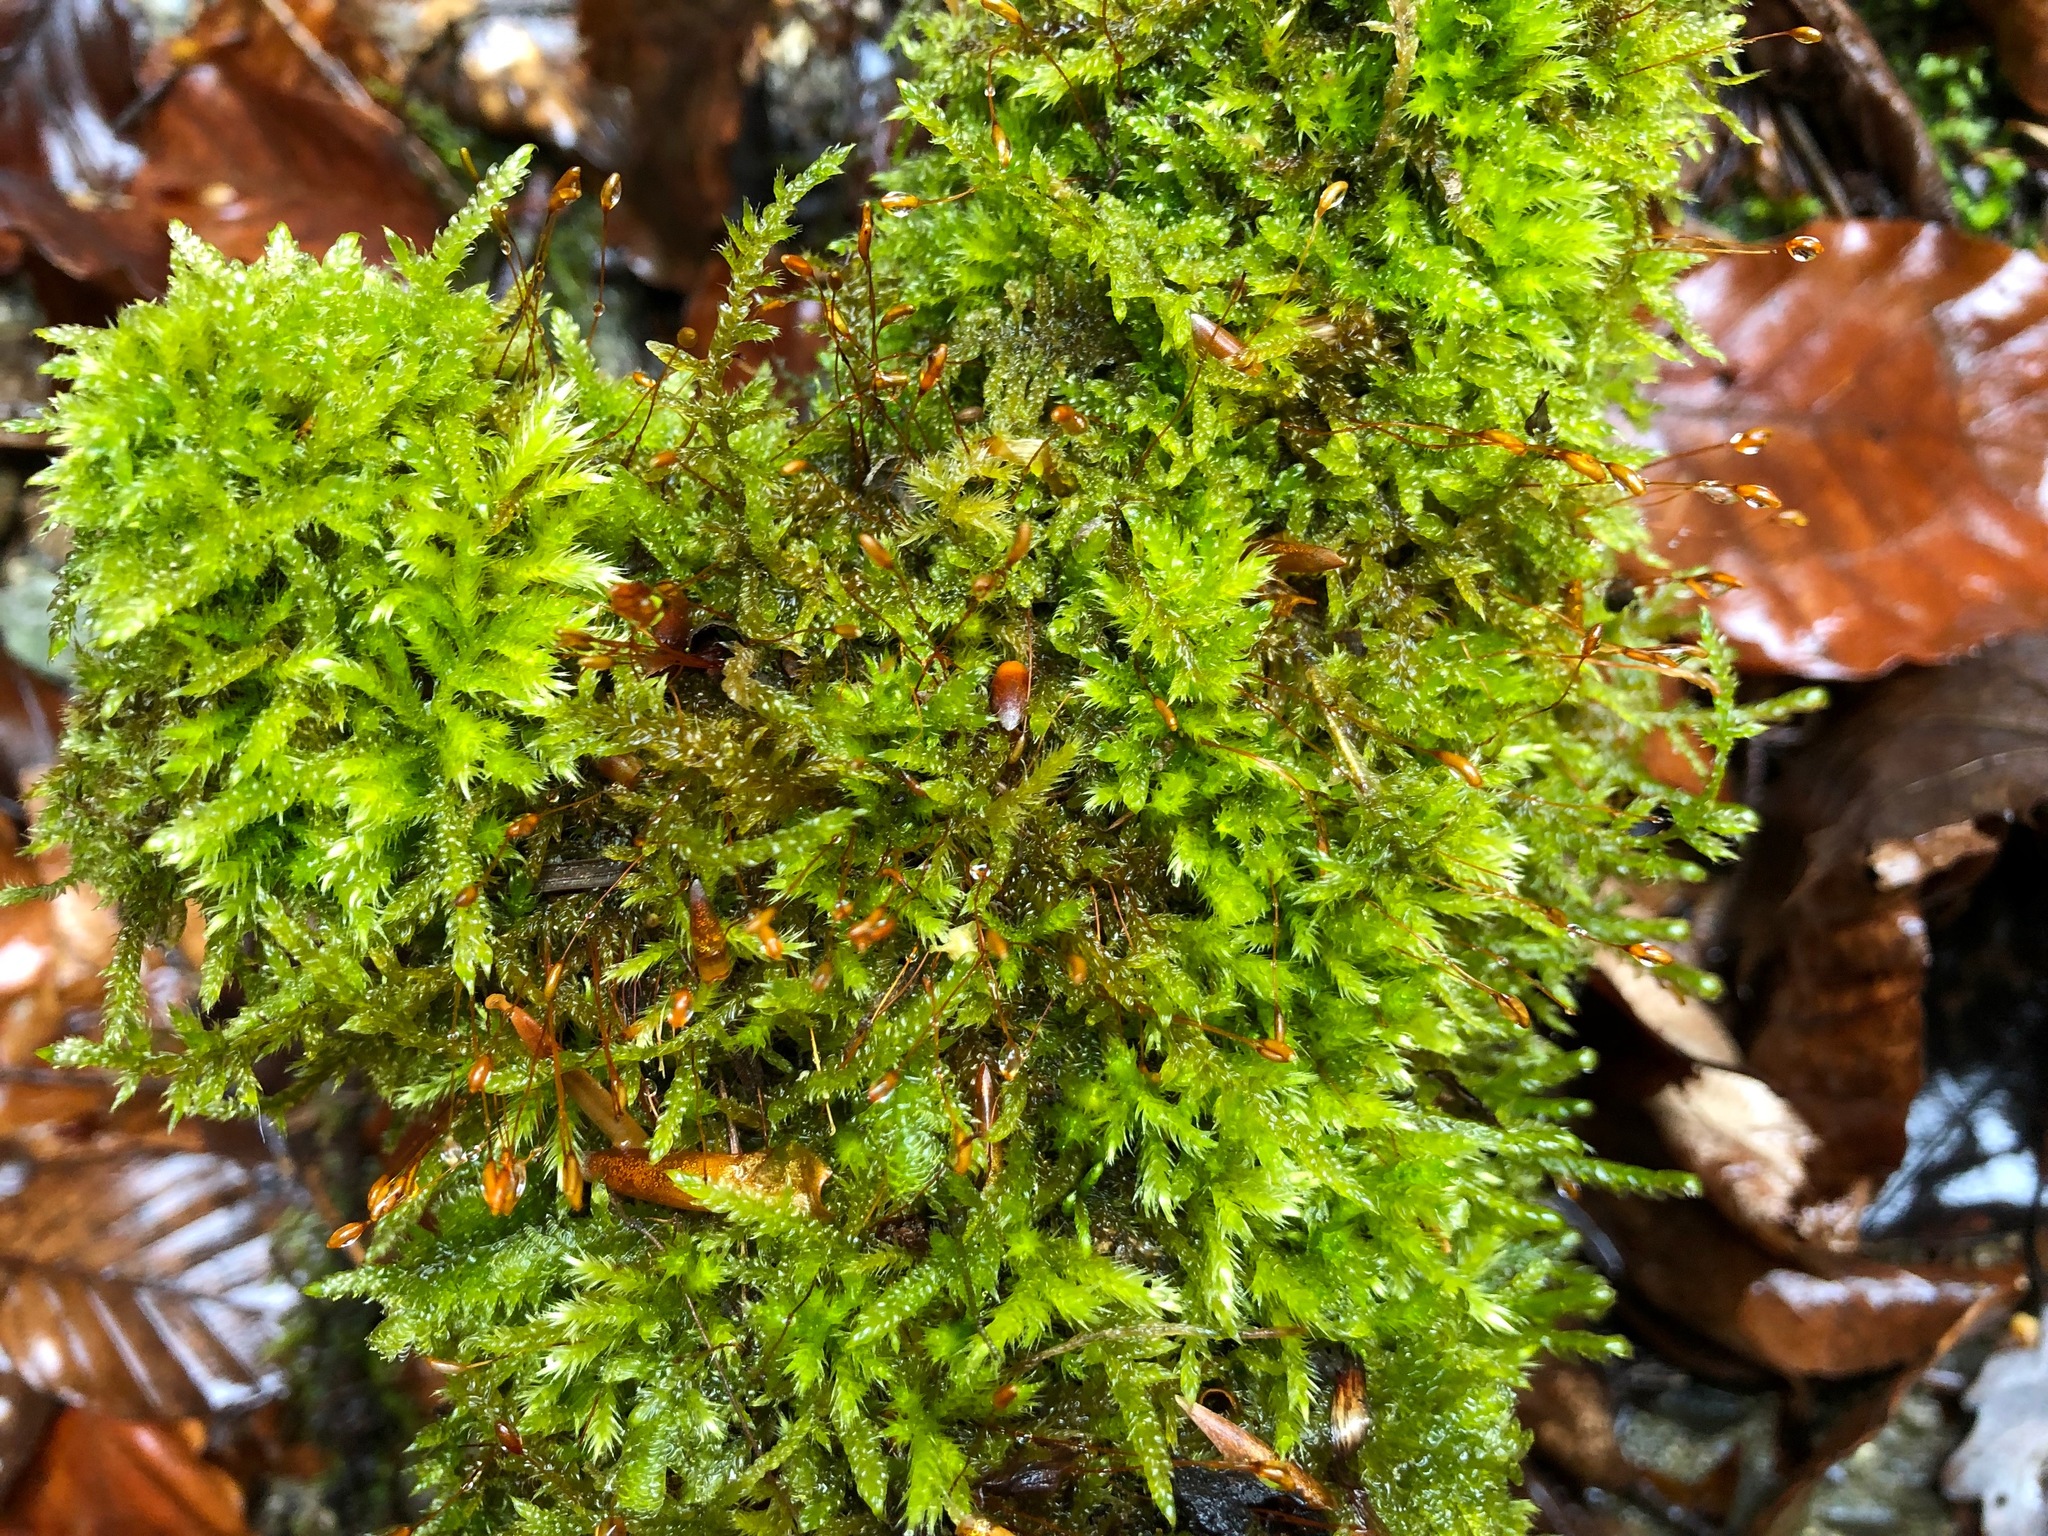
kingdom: Plantae
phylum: Bryophyta
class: Bryopsida
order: Hypnales
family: Hypnaceae
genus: Hypnum
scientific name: Hypnum cupressiforme
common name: Cypress-leaved plait-moss
